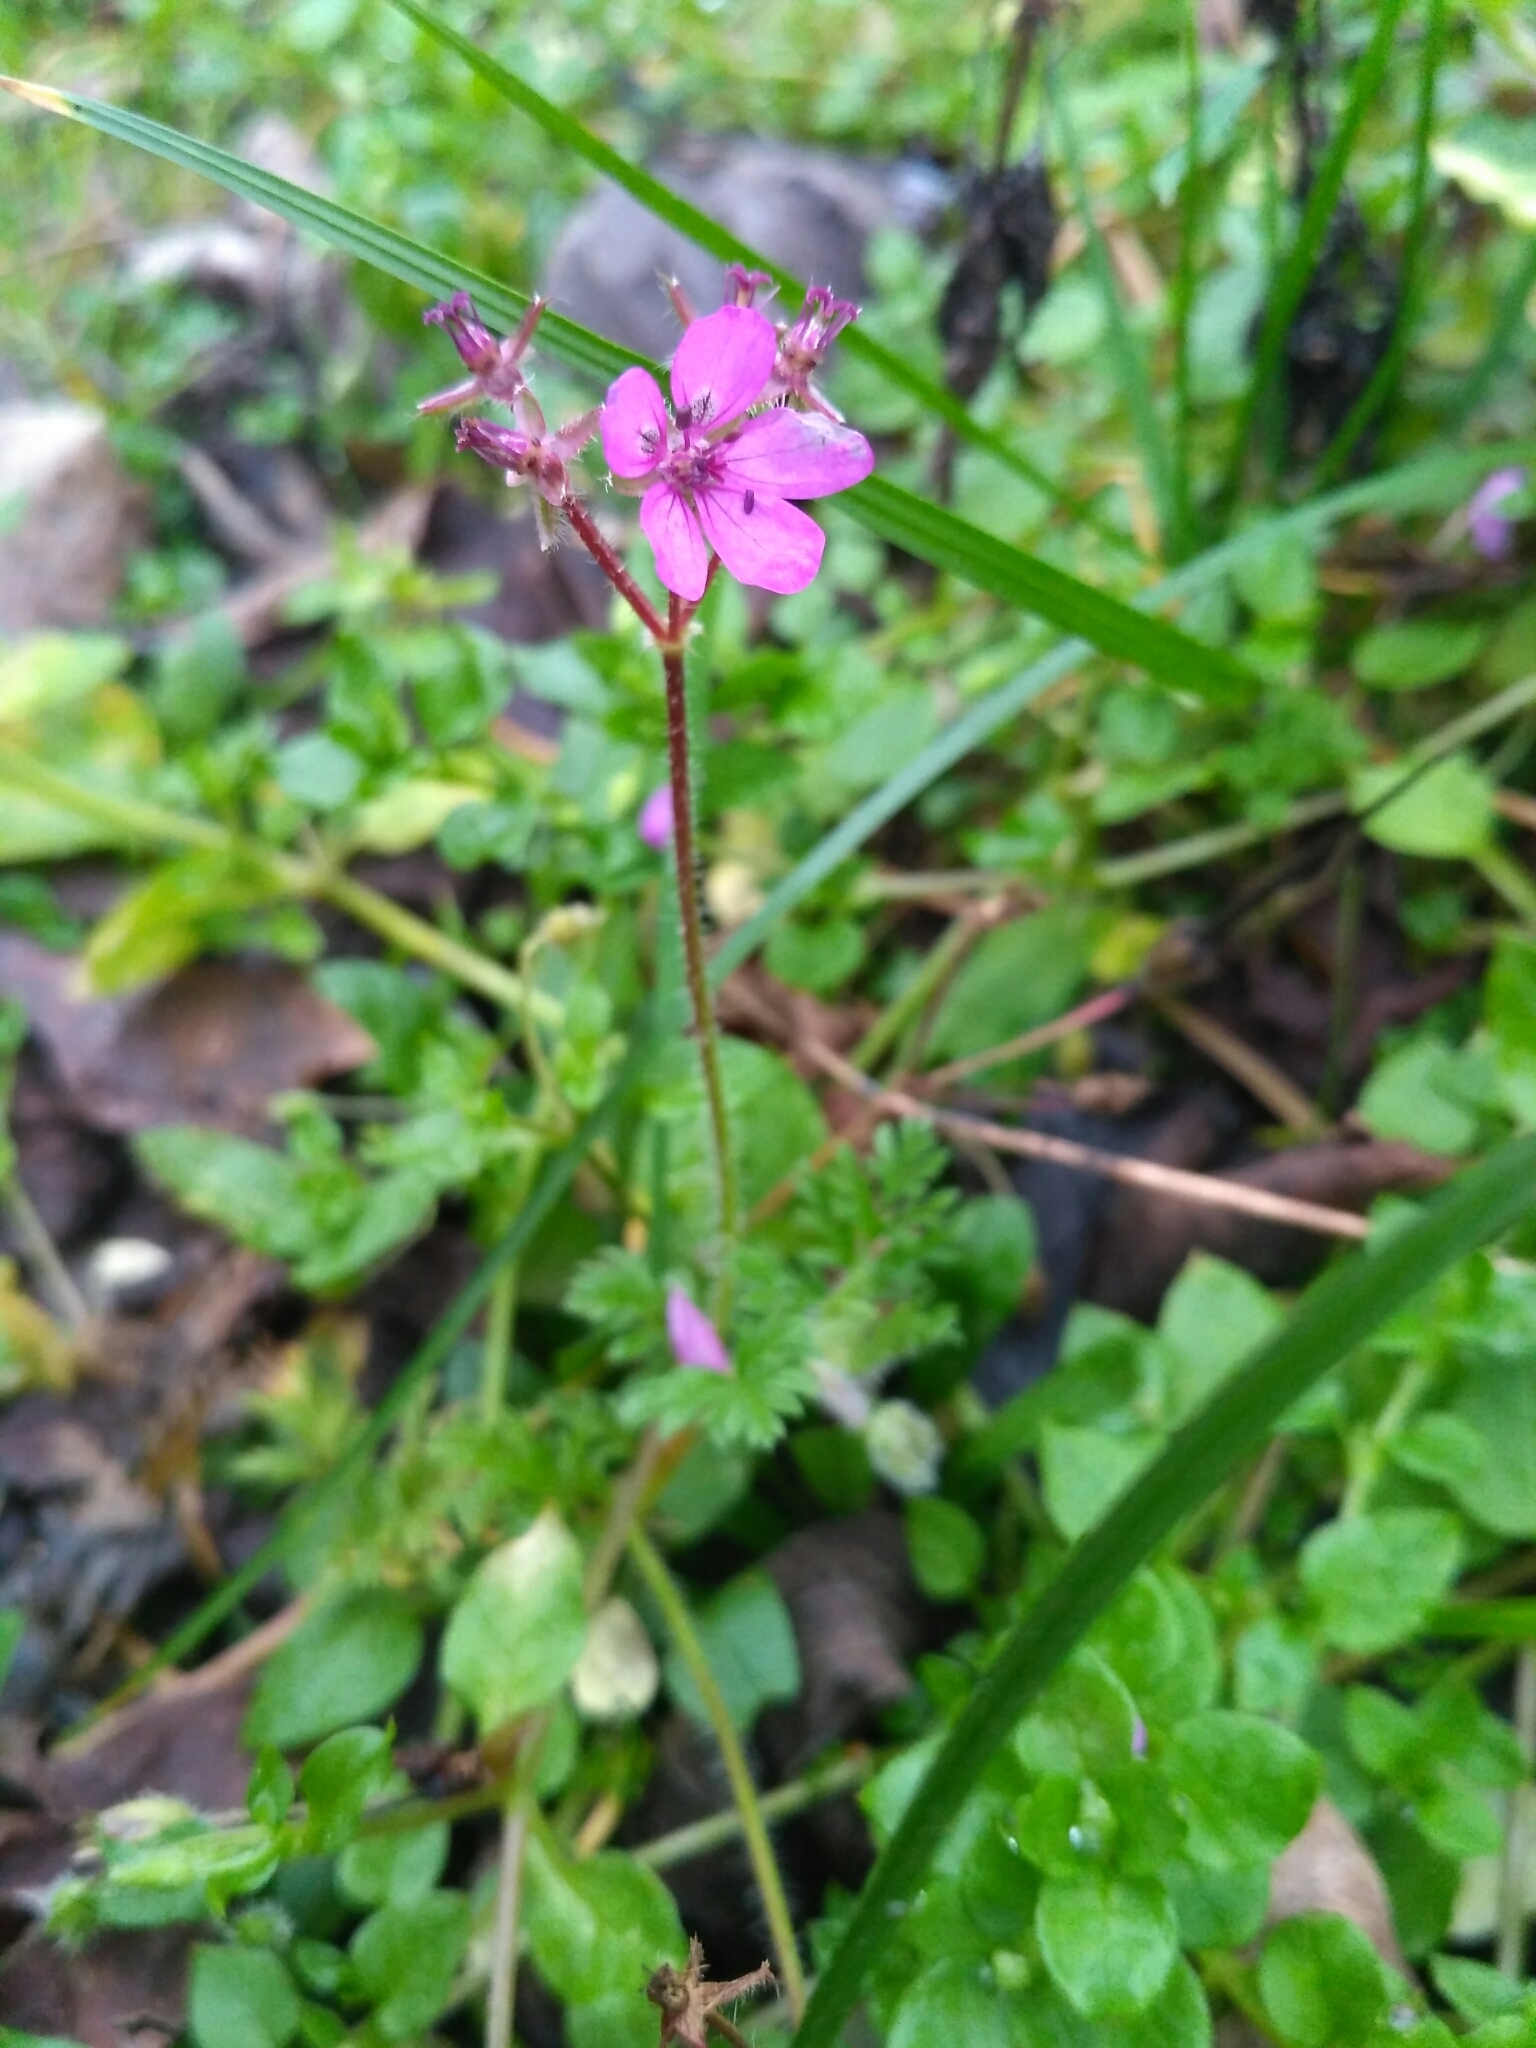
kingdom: Plantae
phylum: Tracheophyta
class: Magnoliopsida
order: Geraniales
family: Geraniaceae
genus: Erodium
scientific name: Erodium cicutarium
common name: Common stork's-bill
